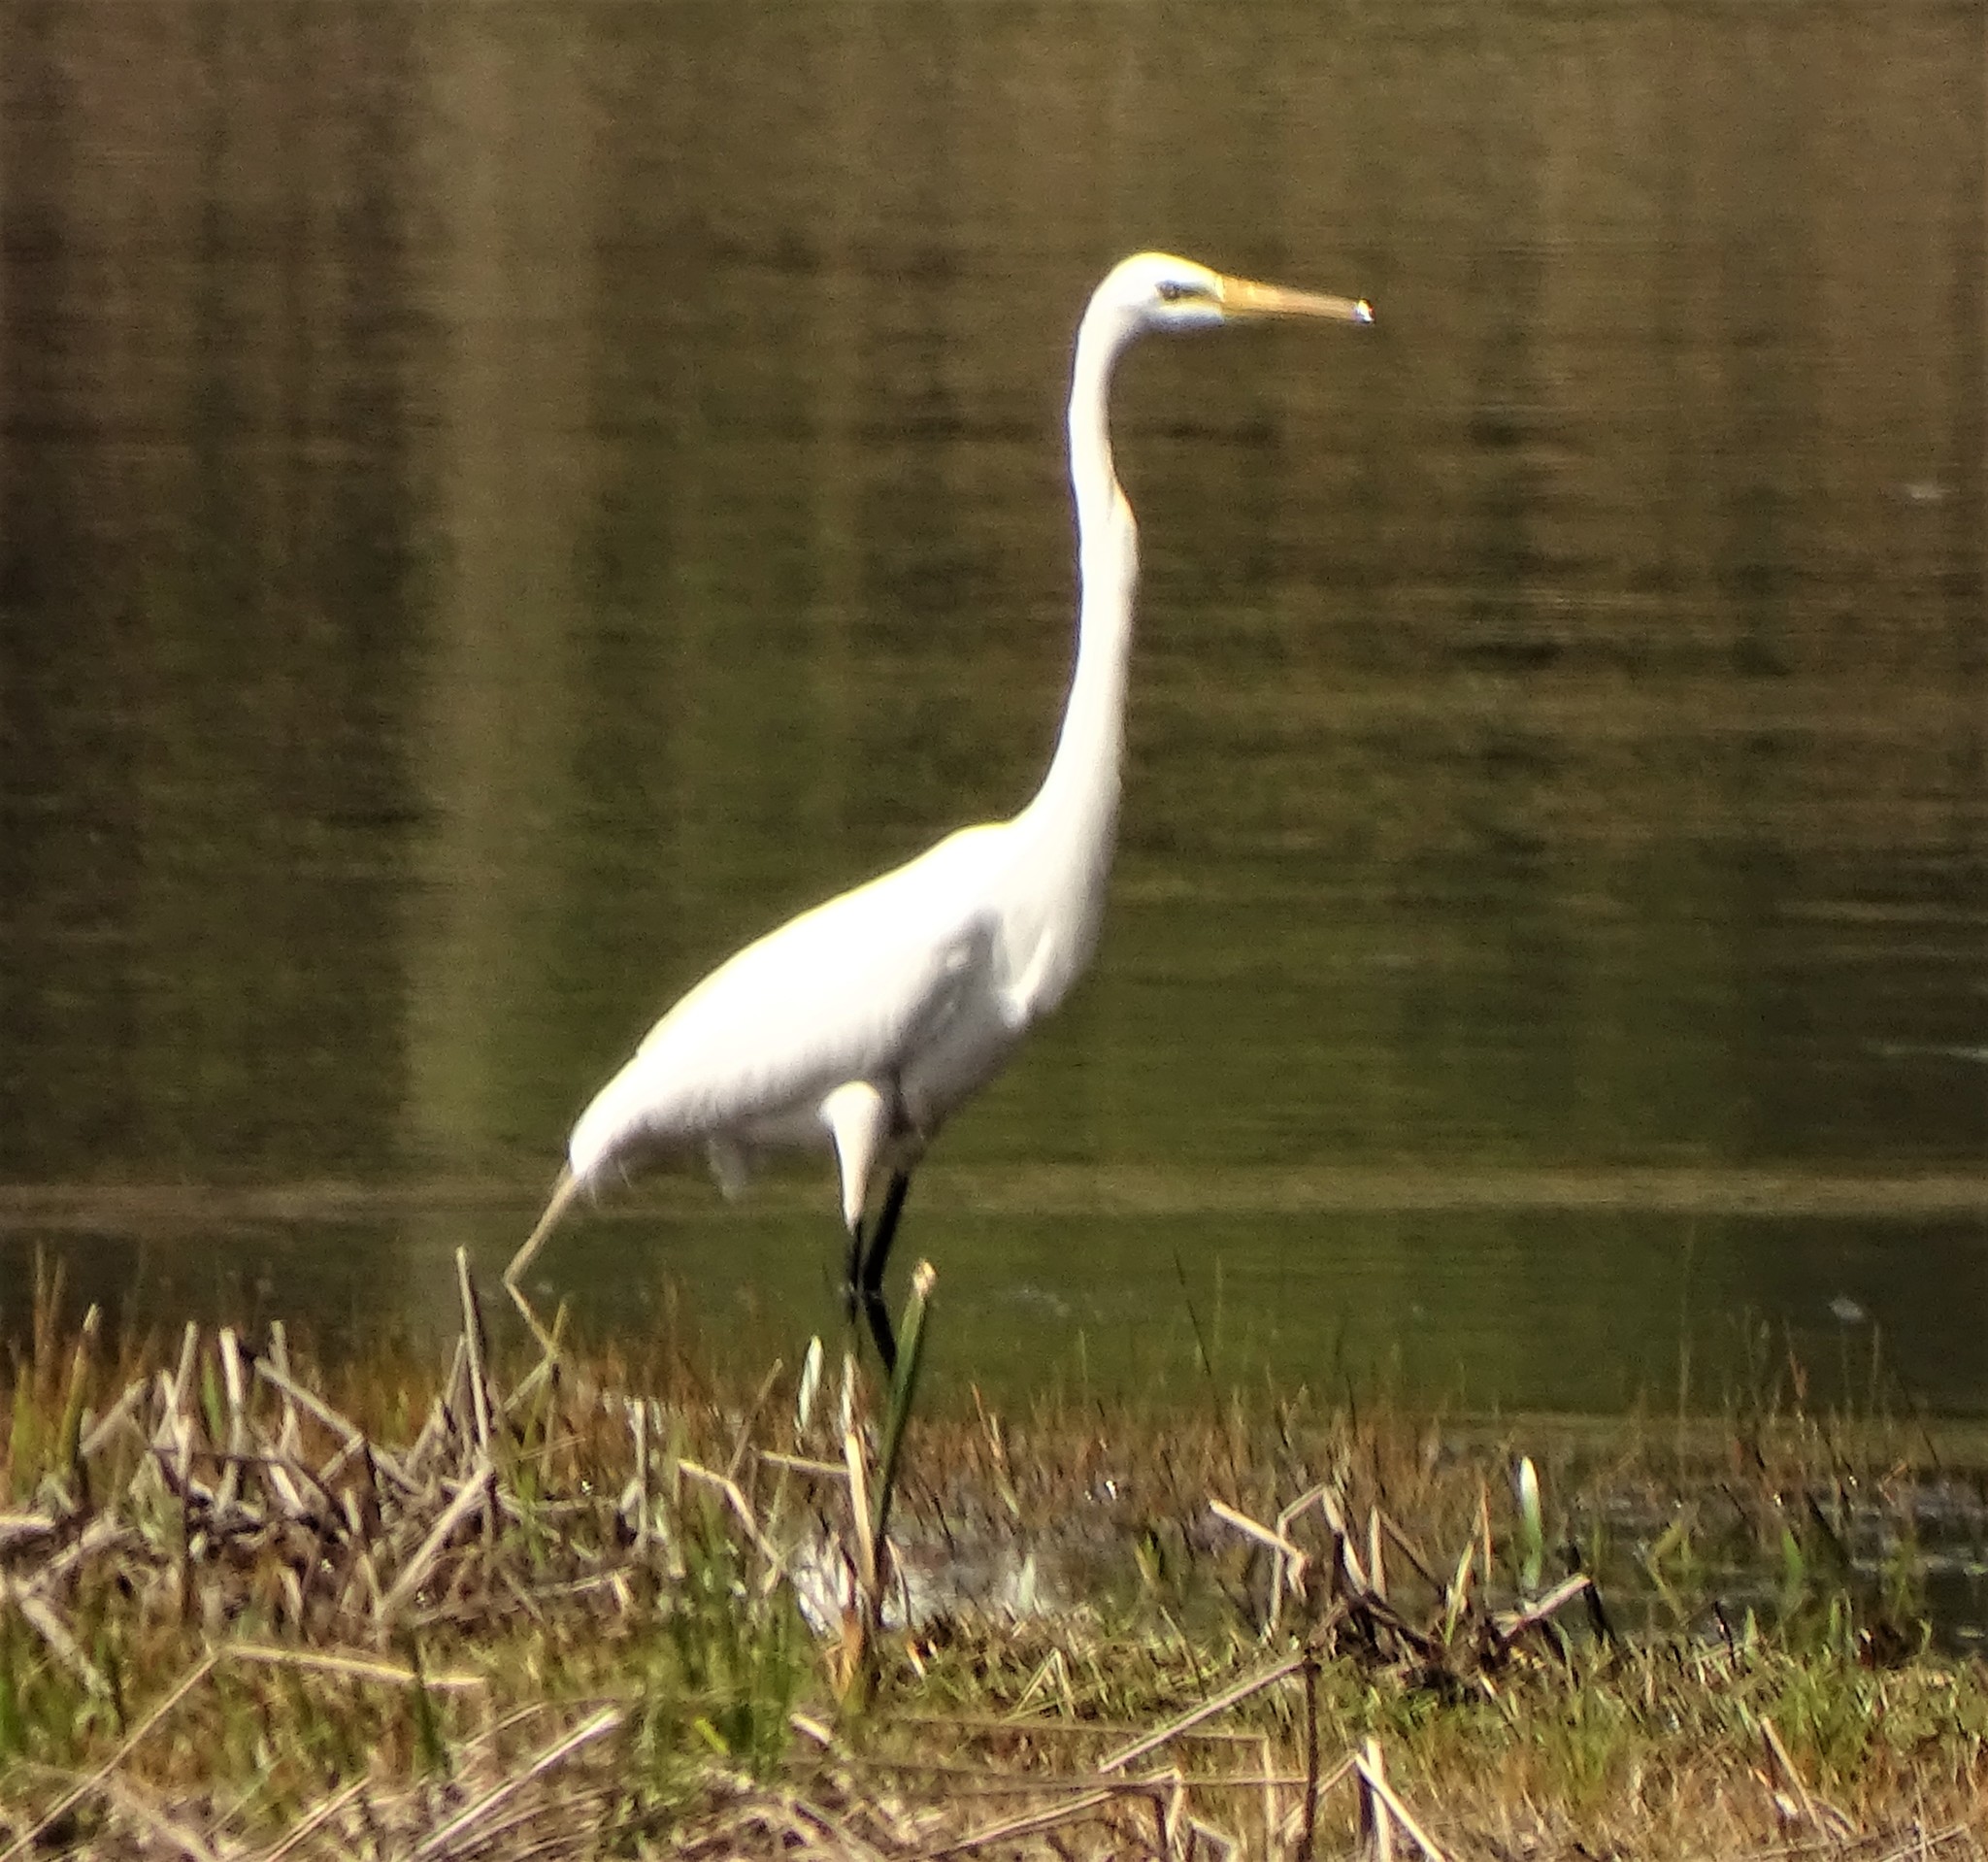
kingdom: Animalia
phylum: Chordata
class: Aves
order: Pelecaniformes
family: Ardeidae
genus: Ardea
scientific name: Ardea alba
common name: Great egret
